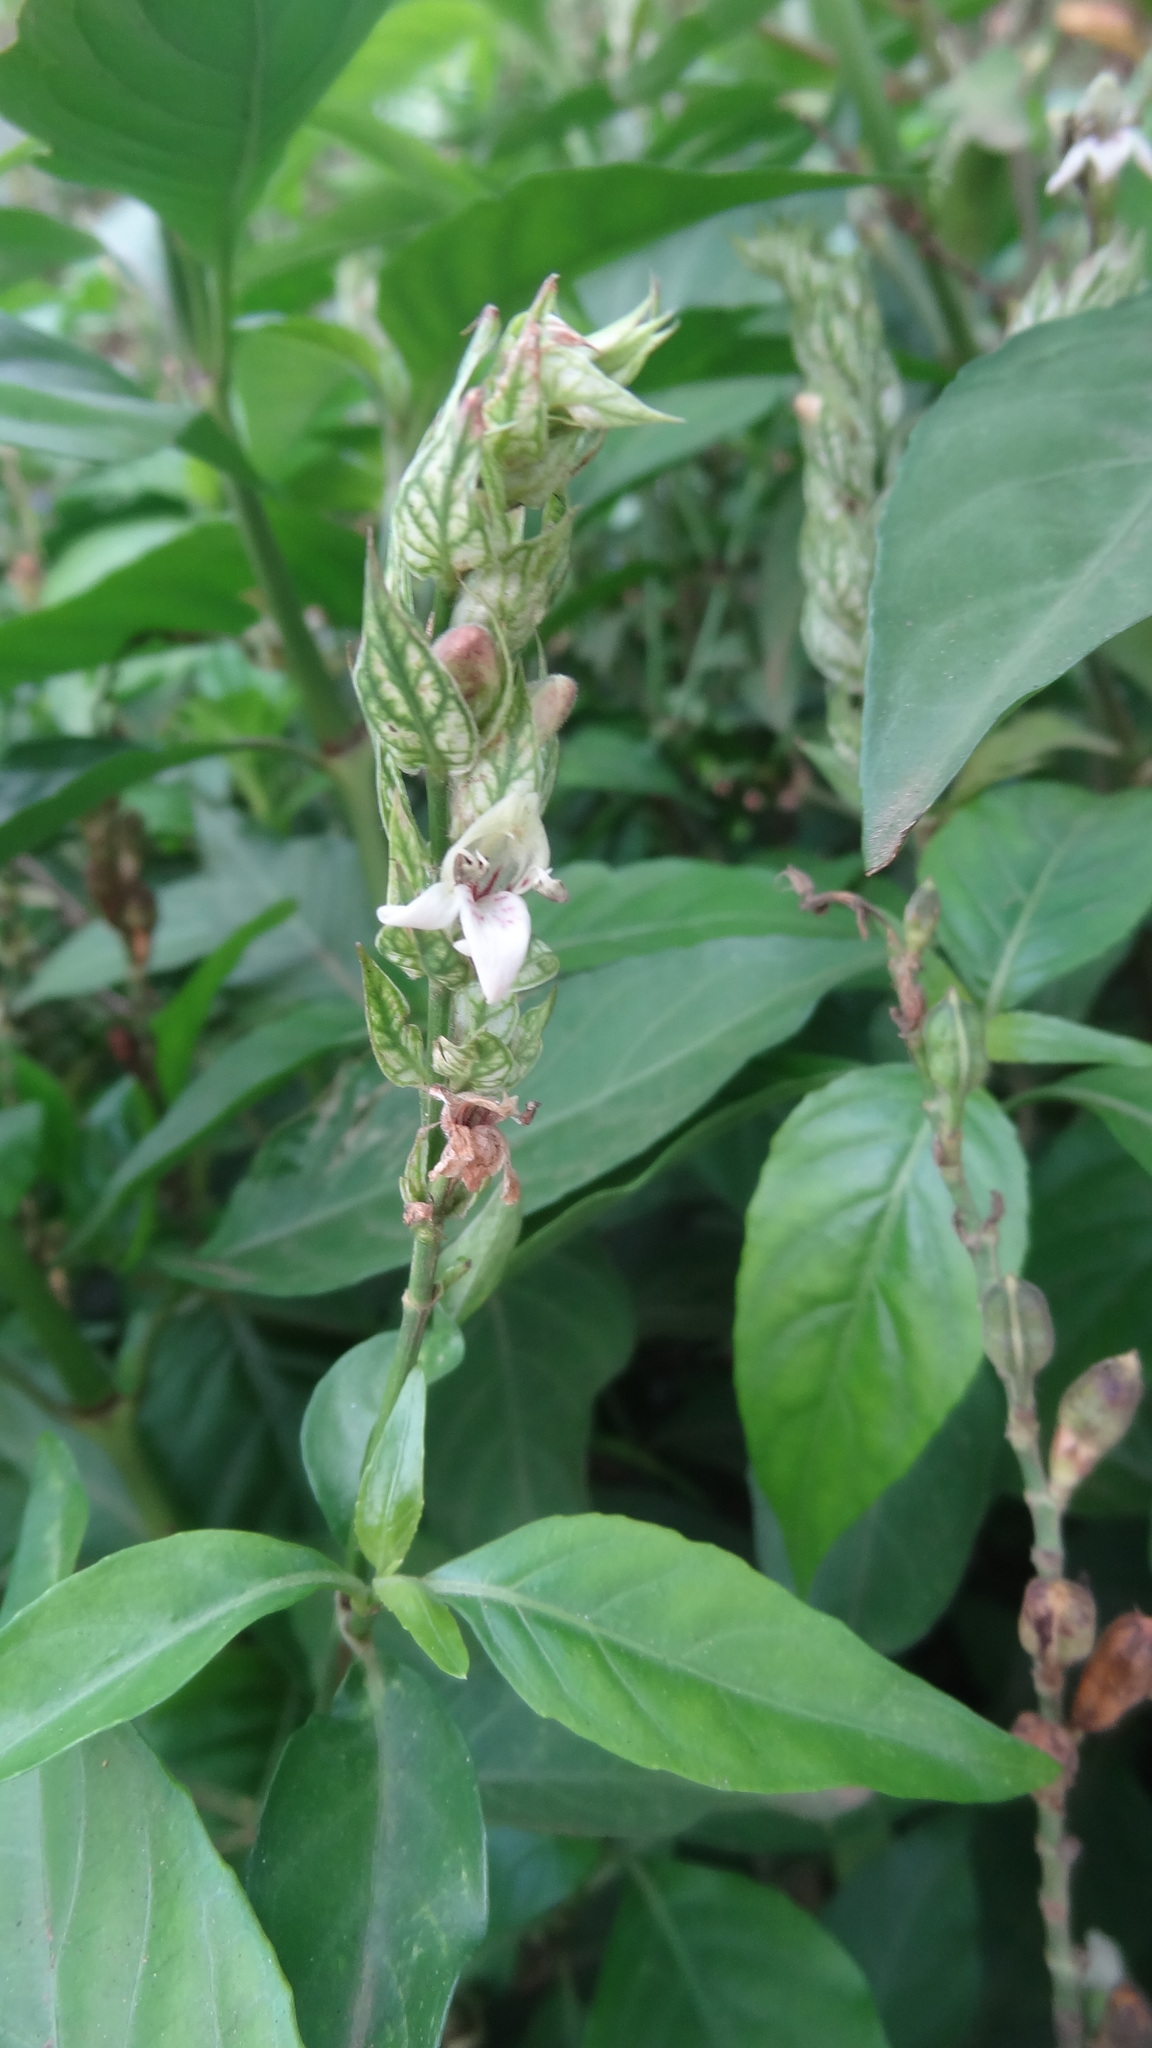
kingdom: Plantae
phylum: Tracheophyta
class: Magnoliopsida
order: Lamiales
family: Acanthaceae
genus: Justicia
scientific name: Justicia betonica
